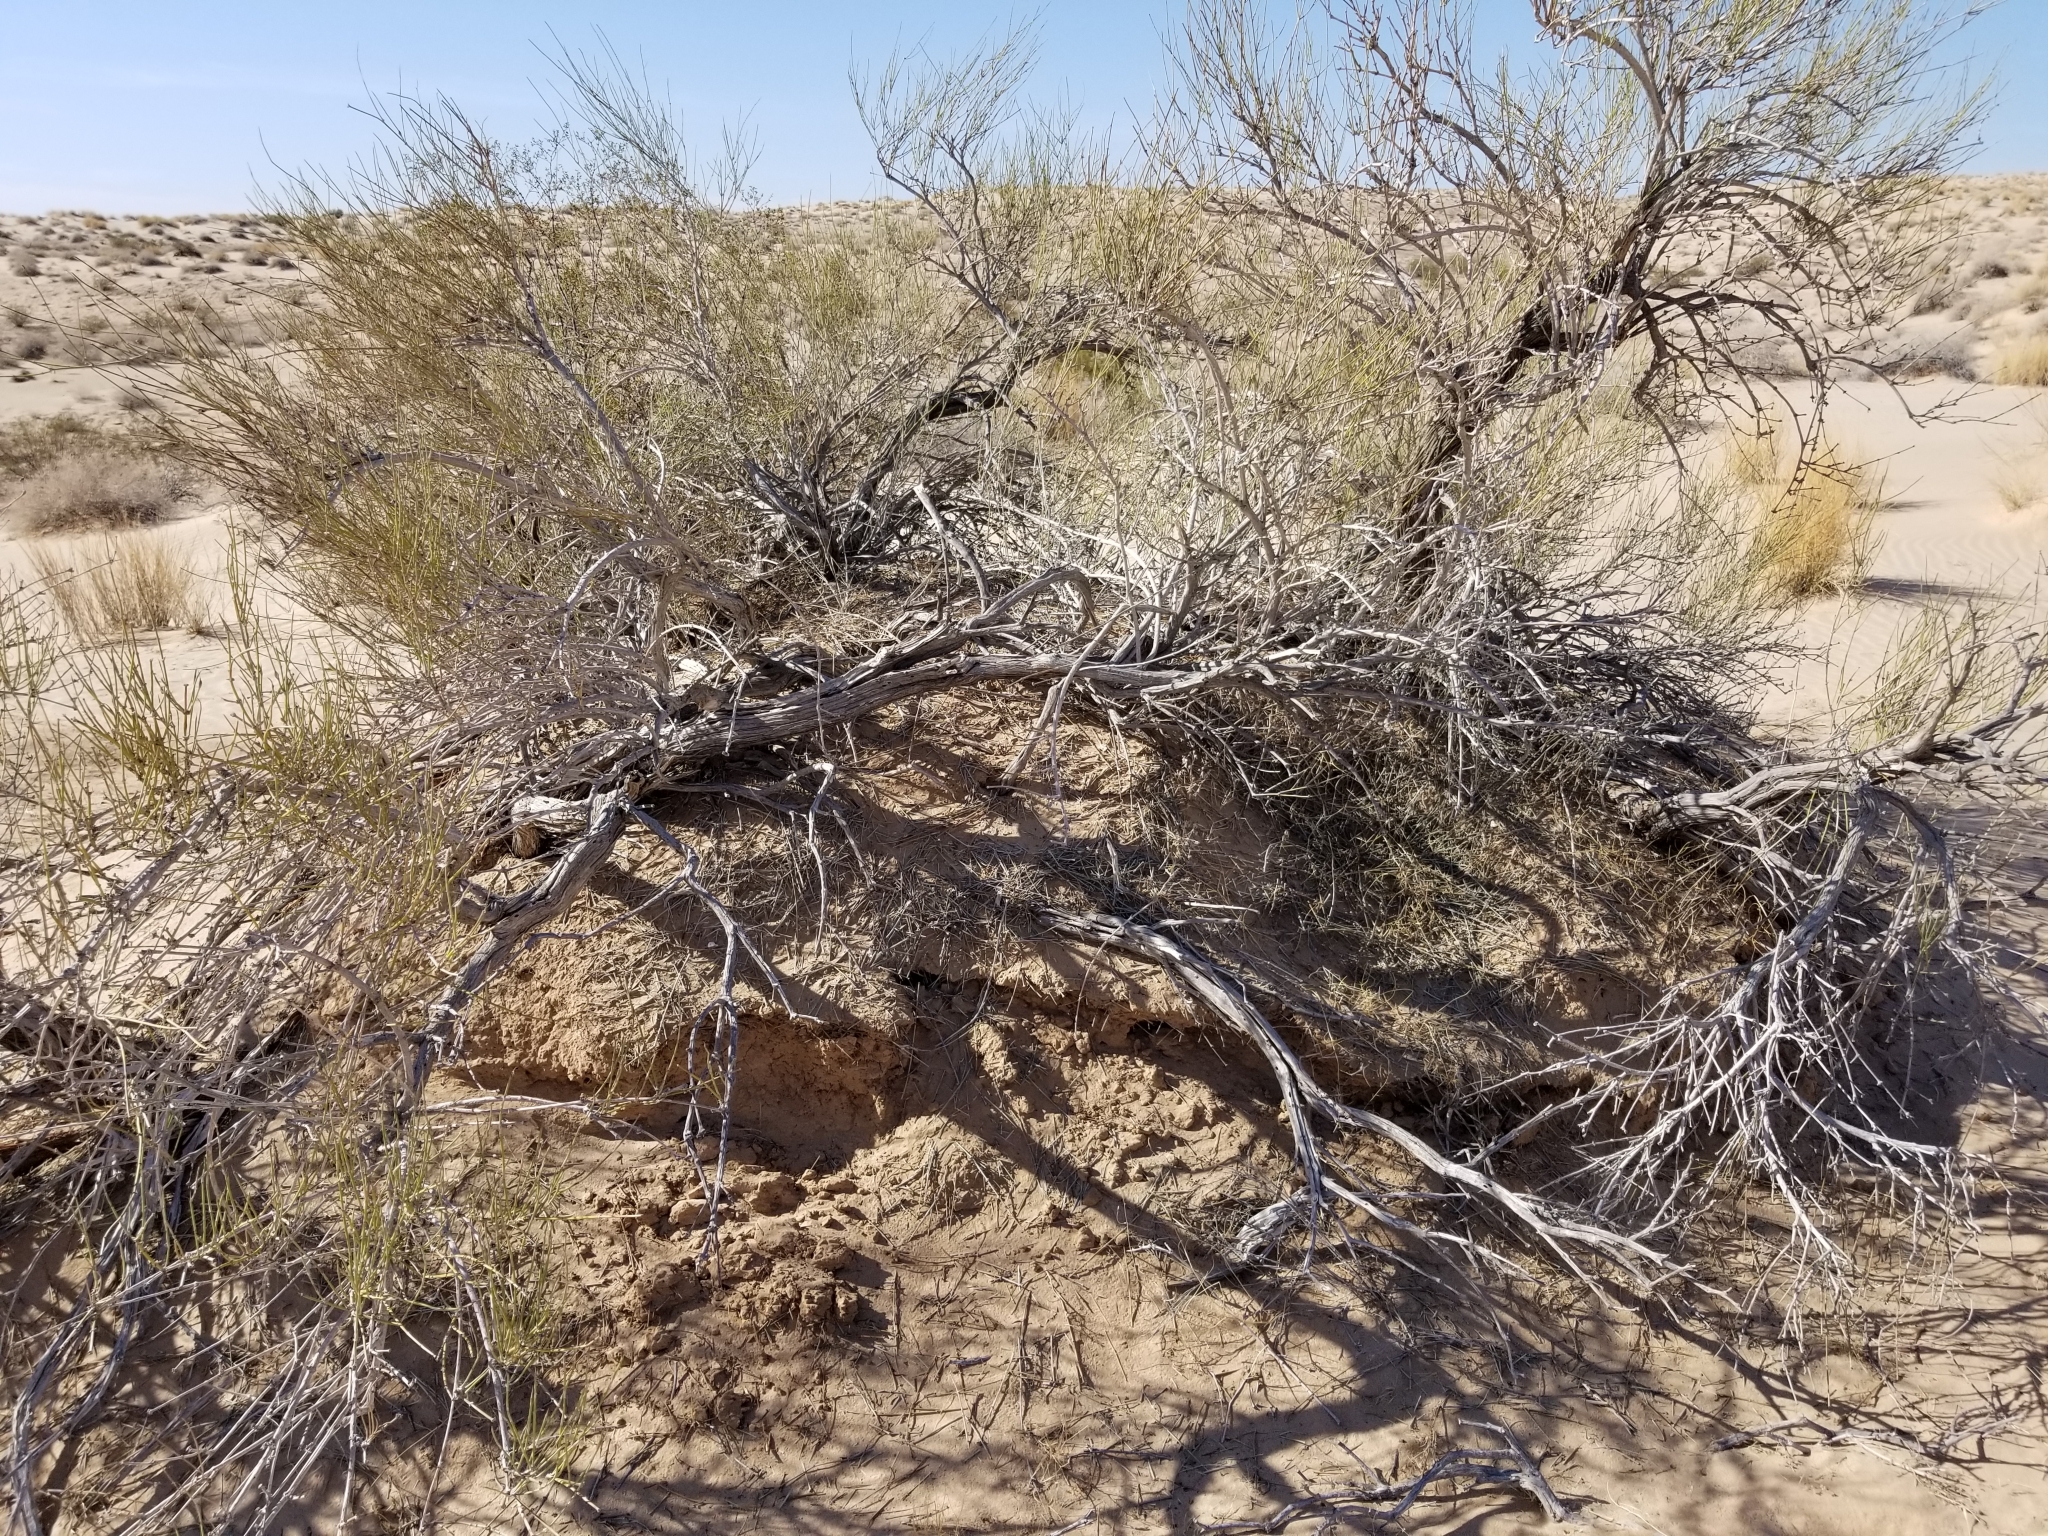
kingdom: Plantae
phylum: Tracheophyta
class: Gnetopsida
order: Ephedrales
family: Ephedraceae
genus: Ephedra
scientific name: Ephedra trifurca
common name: Mexican-tea
